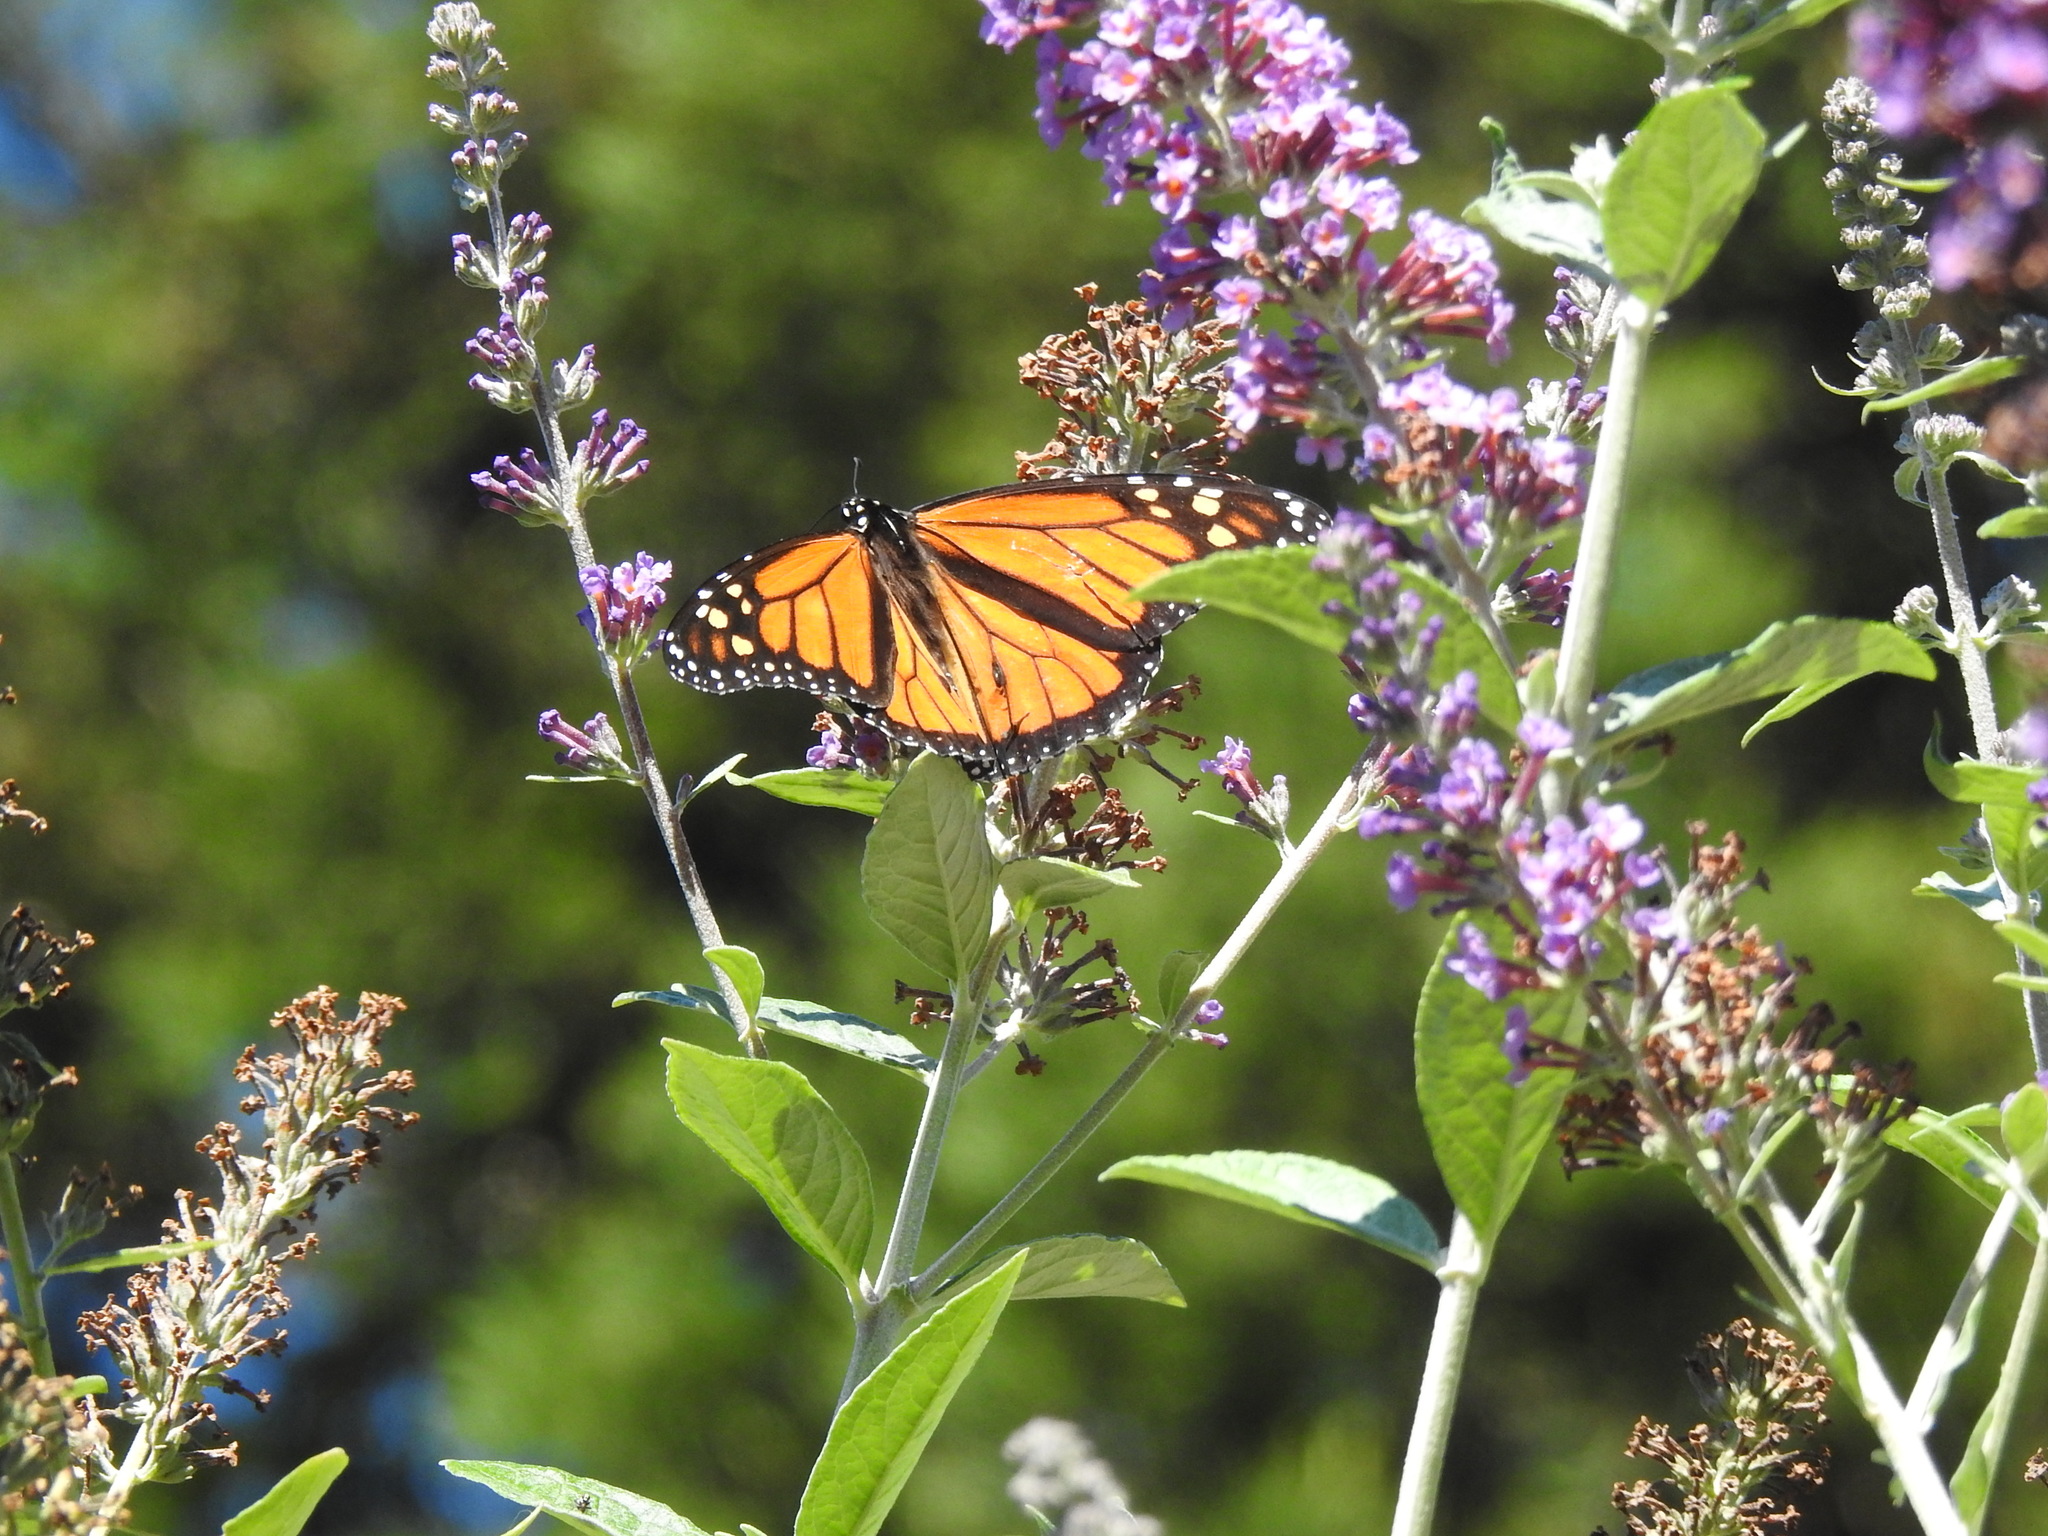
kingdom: Animalia
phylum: Arthropoda
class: Insecta
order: Lepidoptera
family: Nymphalidae
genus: Danaus
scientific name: Danaus plexippus
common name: Monarch
